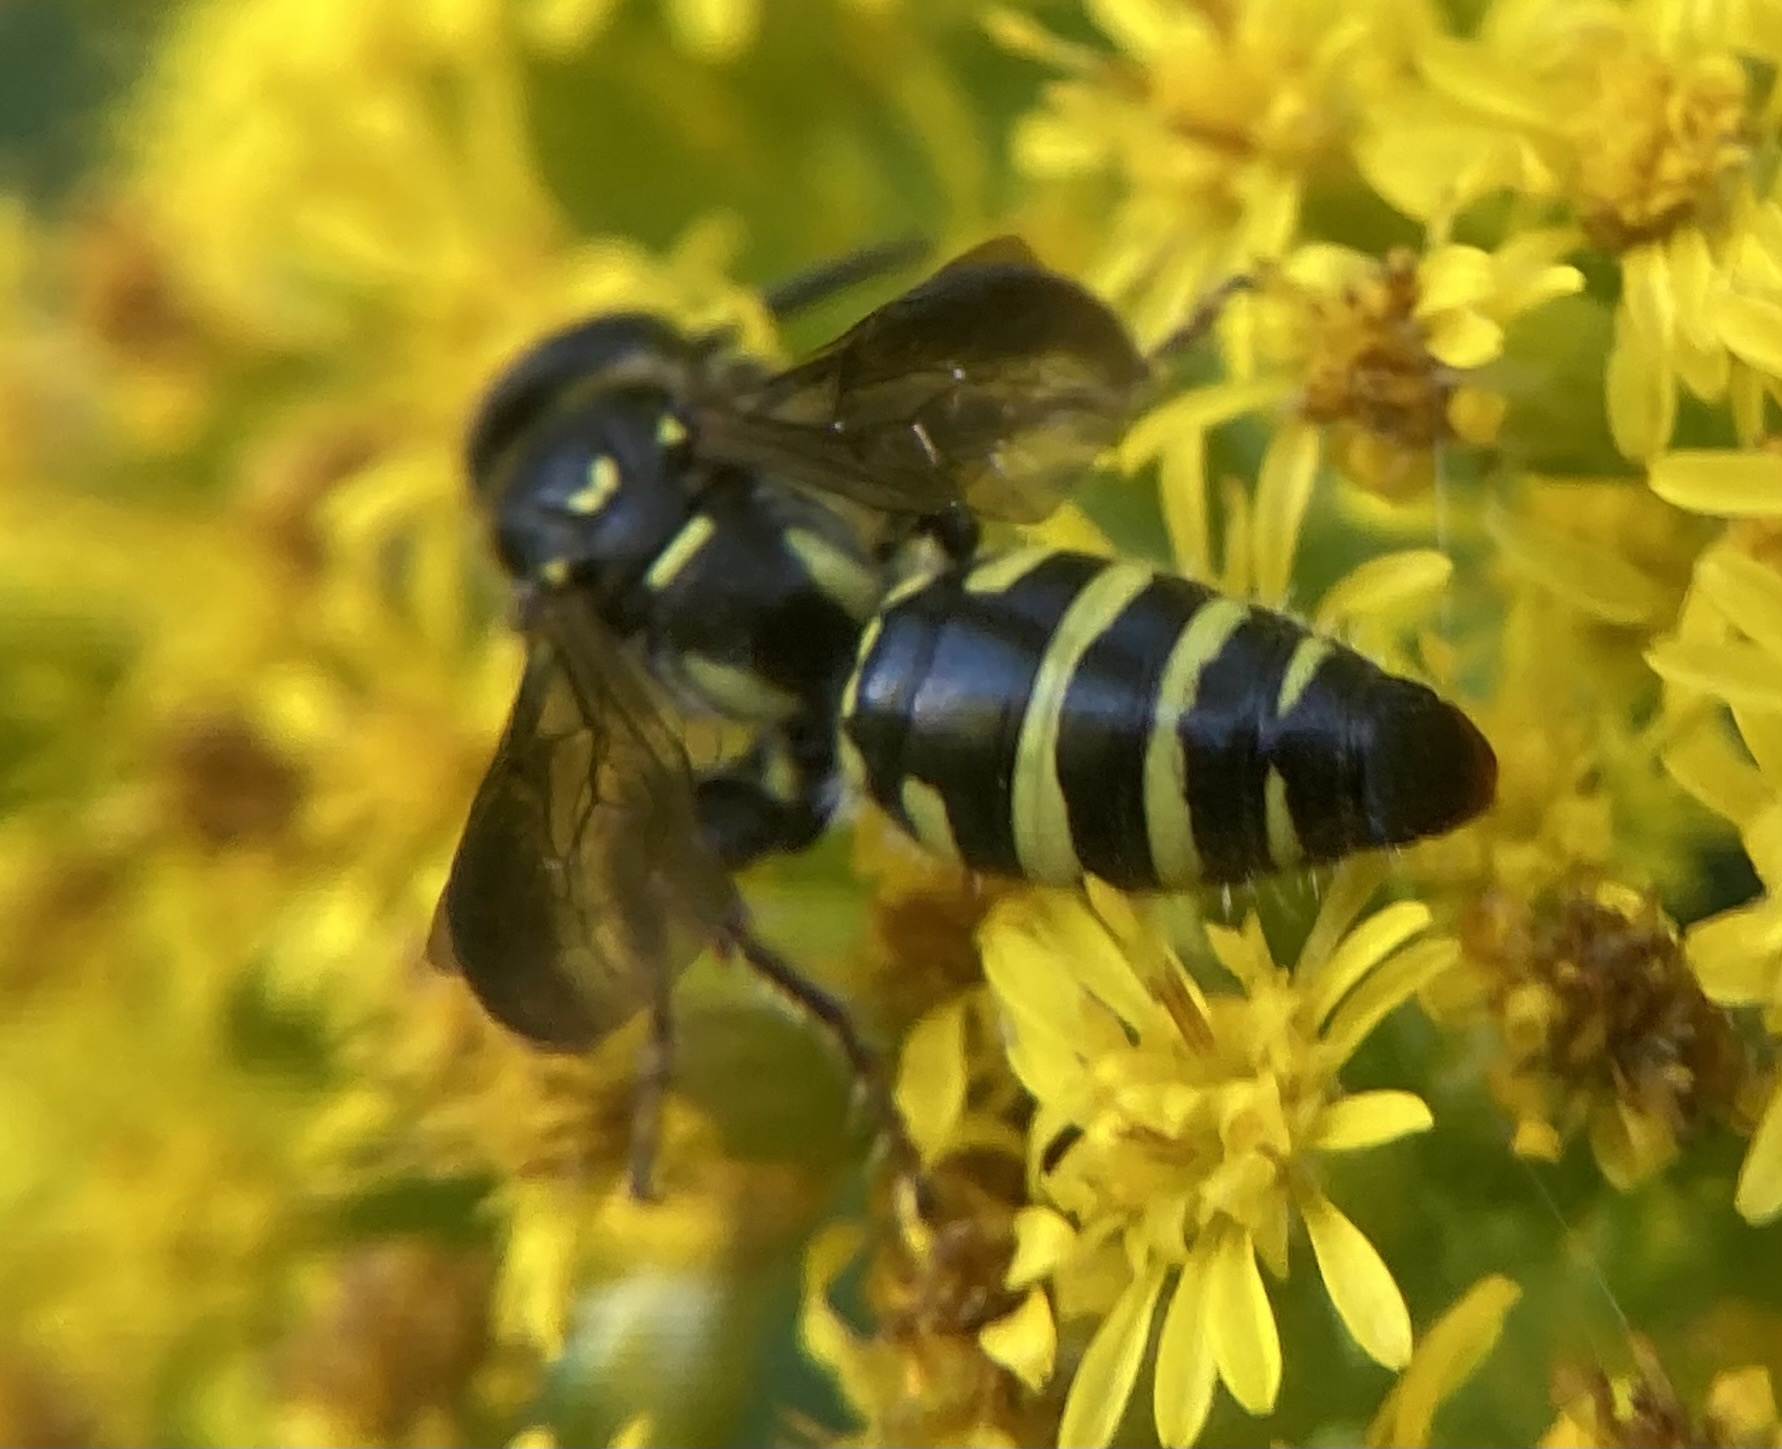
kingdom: Animalia
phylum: Arthropoda
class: Insecta
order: Hymenoptera
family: Tiphiidae
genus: Myzinum
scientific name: Myzinum maculatum
